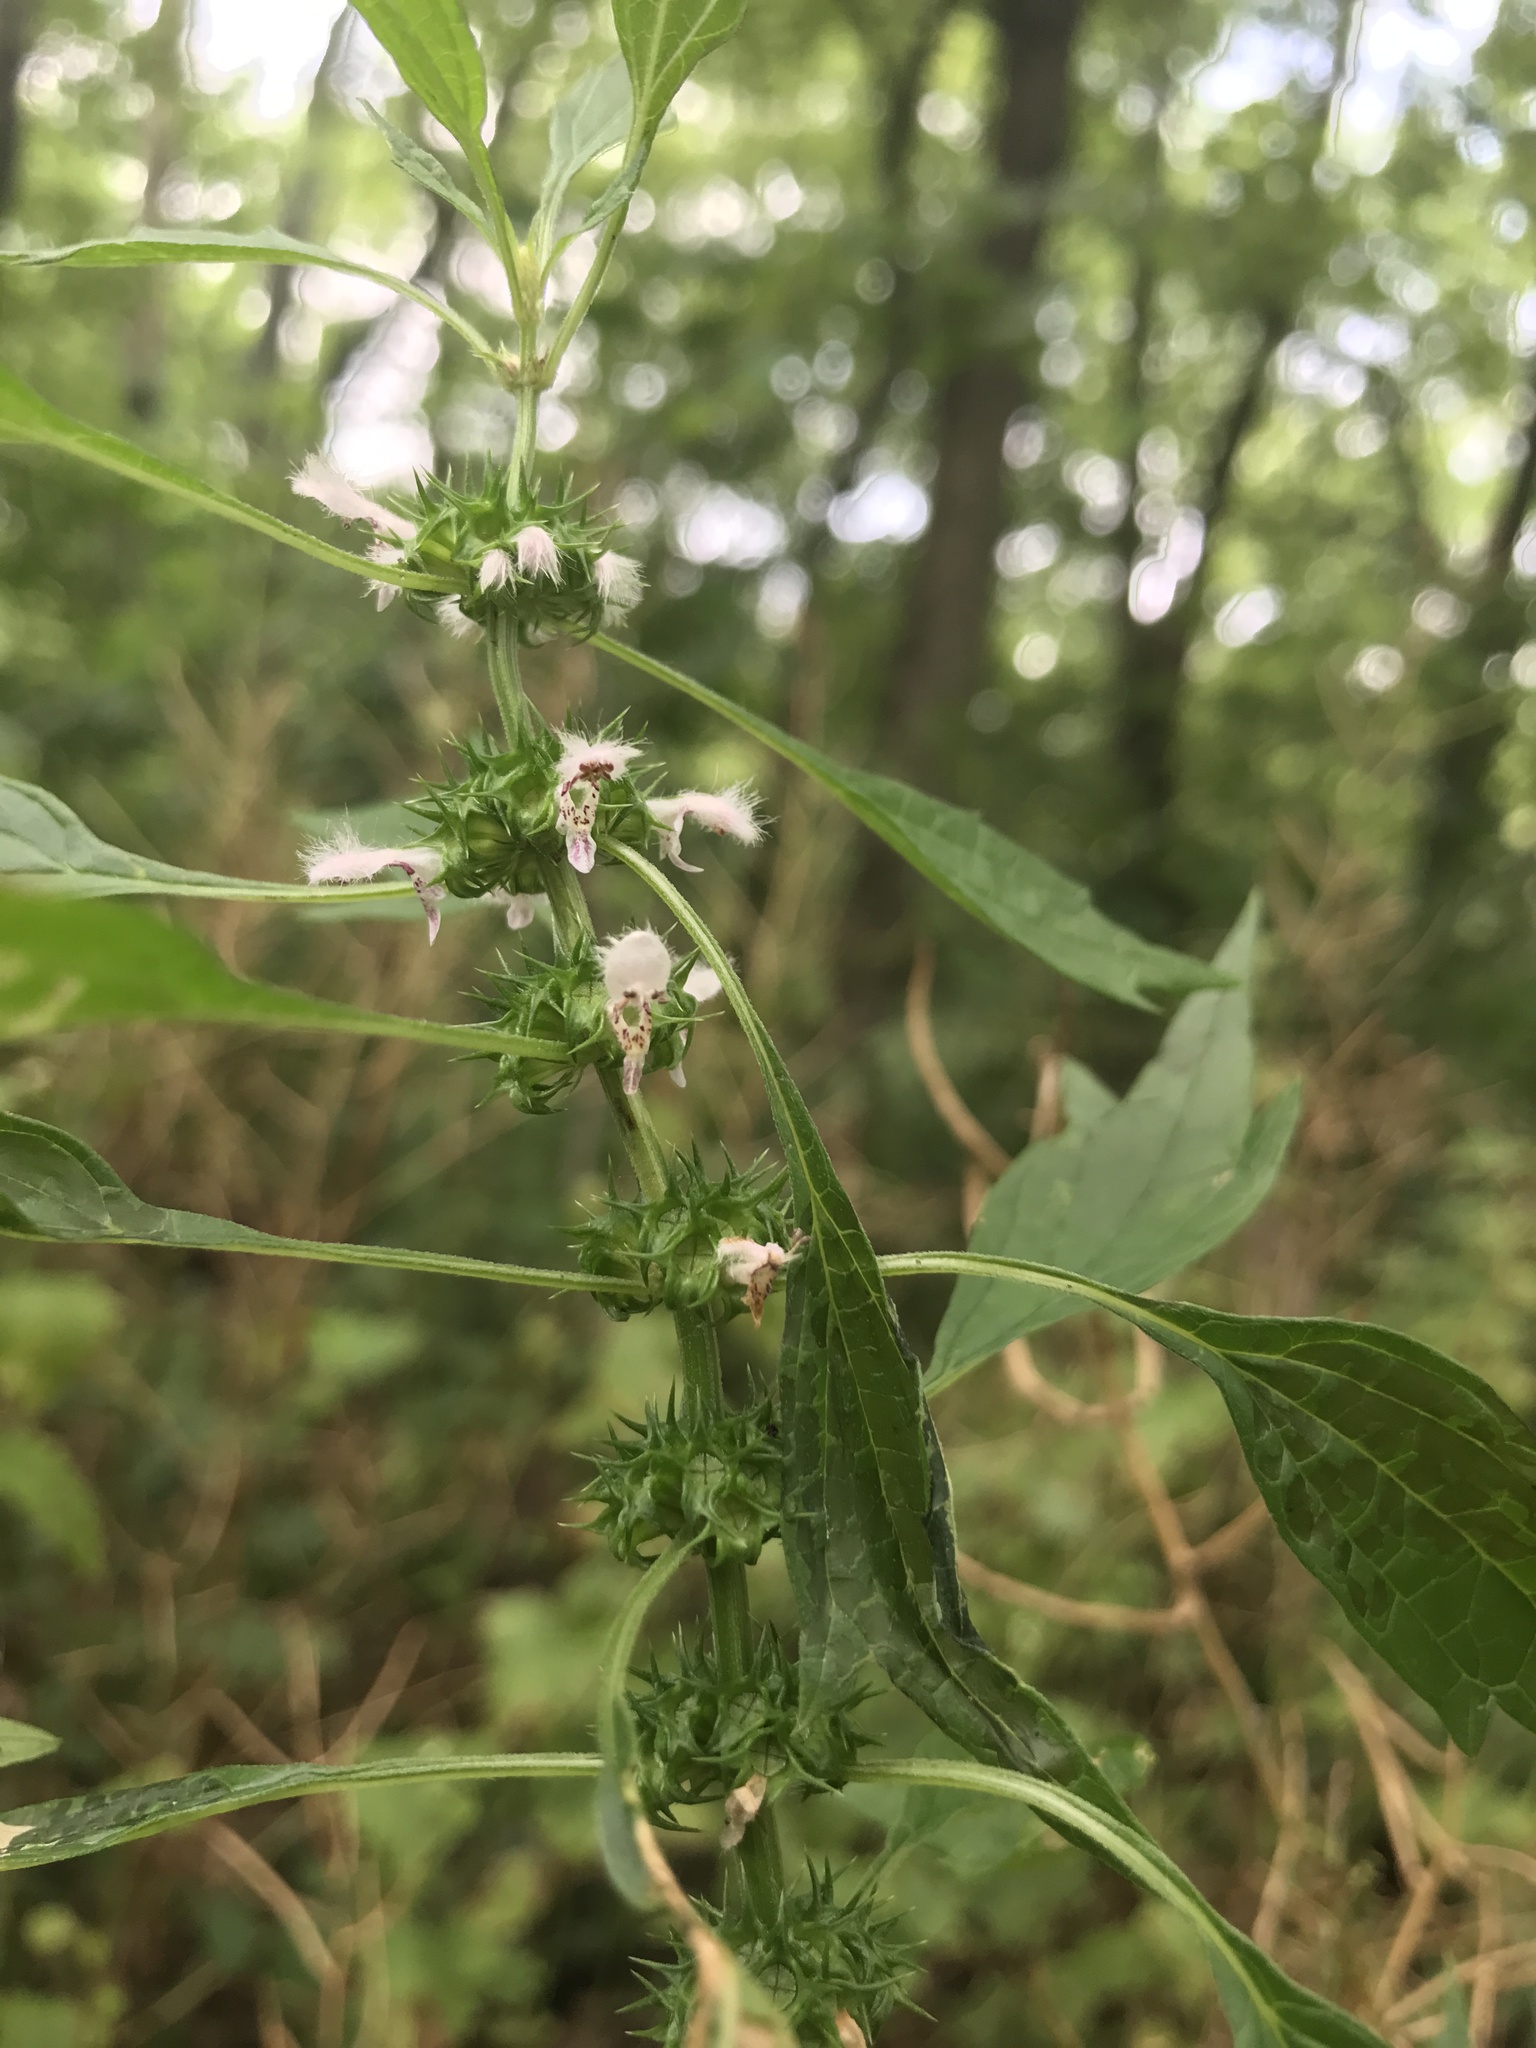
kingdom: Plantae
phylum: Tracheophyta
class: Magnoliopsida
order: Lamiales
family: Lamiaceae
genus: Leonurus
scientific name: Leonurus cardiaca
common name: Motherwort
